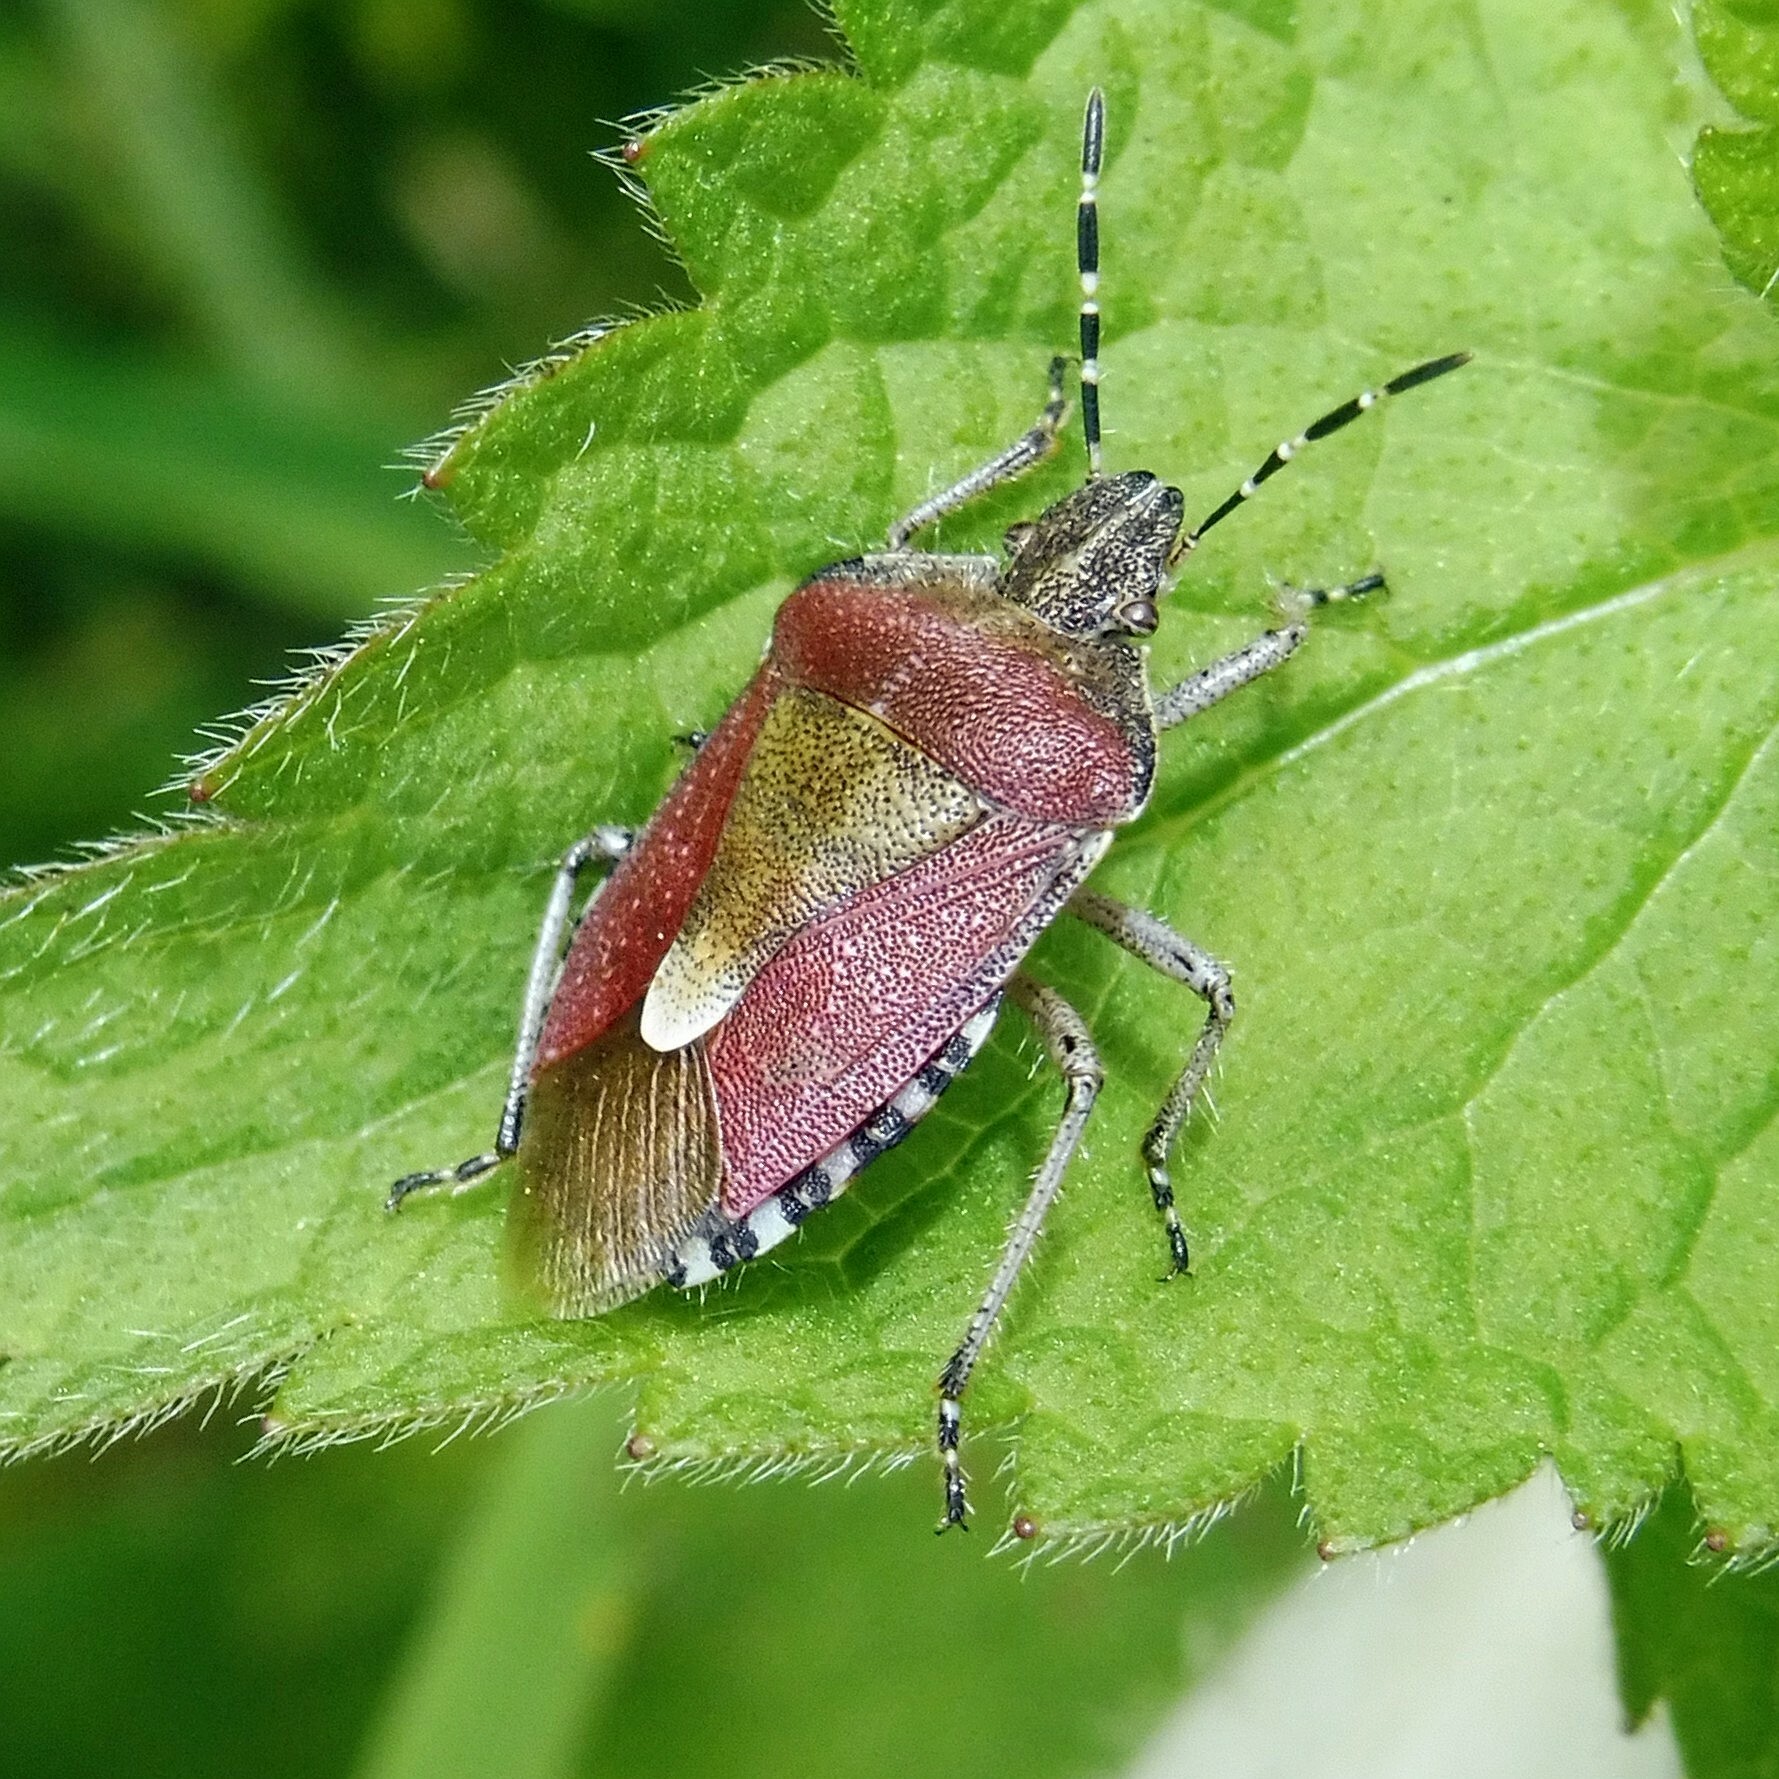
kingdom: Animalia
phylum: Arthropoda
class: Insecta
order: Hemiptera
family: Pentatomidae
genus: Dolycoris
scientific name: Dolycoris baccarum
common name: Sloe bug
